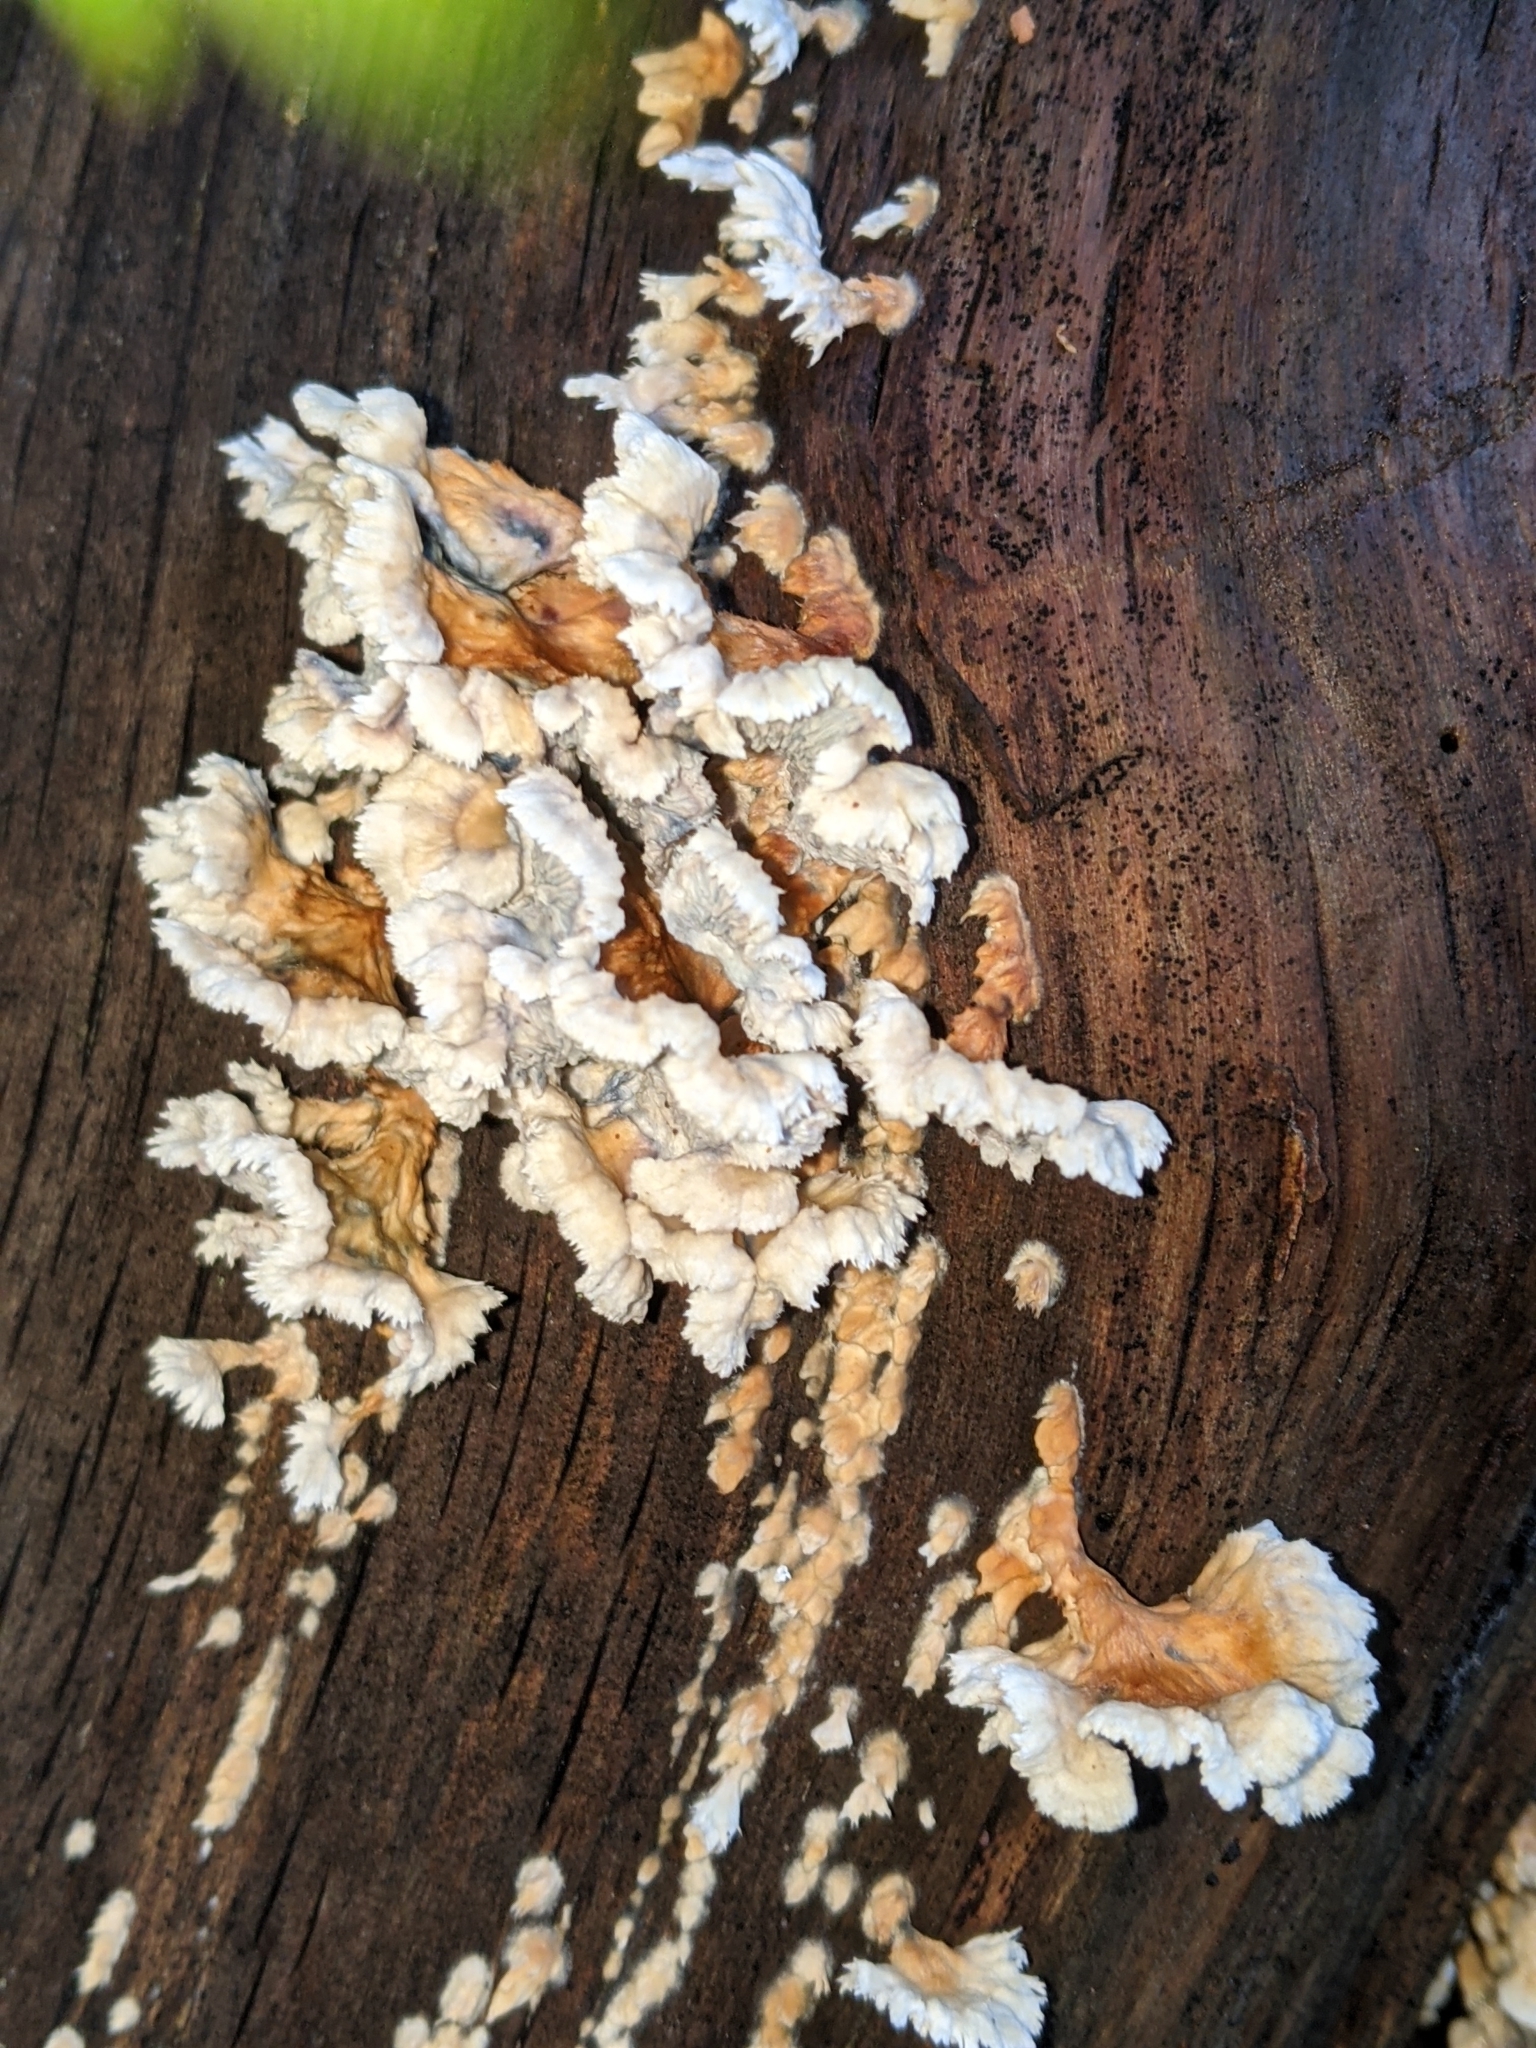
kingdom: Fungi
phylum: Basidiomycota
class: Agaricomycetes
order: Amylocorticiales
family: Amylocorticiaceae
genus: Plicaturopsis
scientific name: Plicaturopsis crispa
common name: Crimped gill
